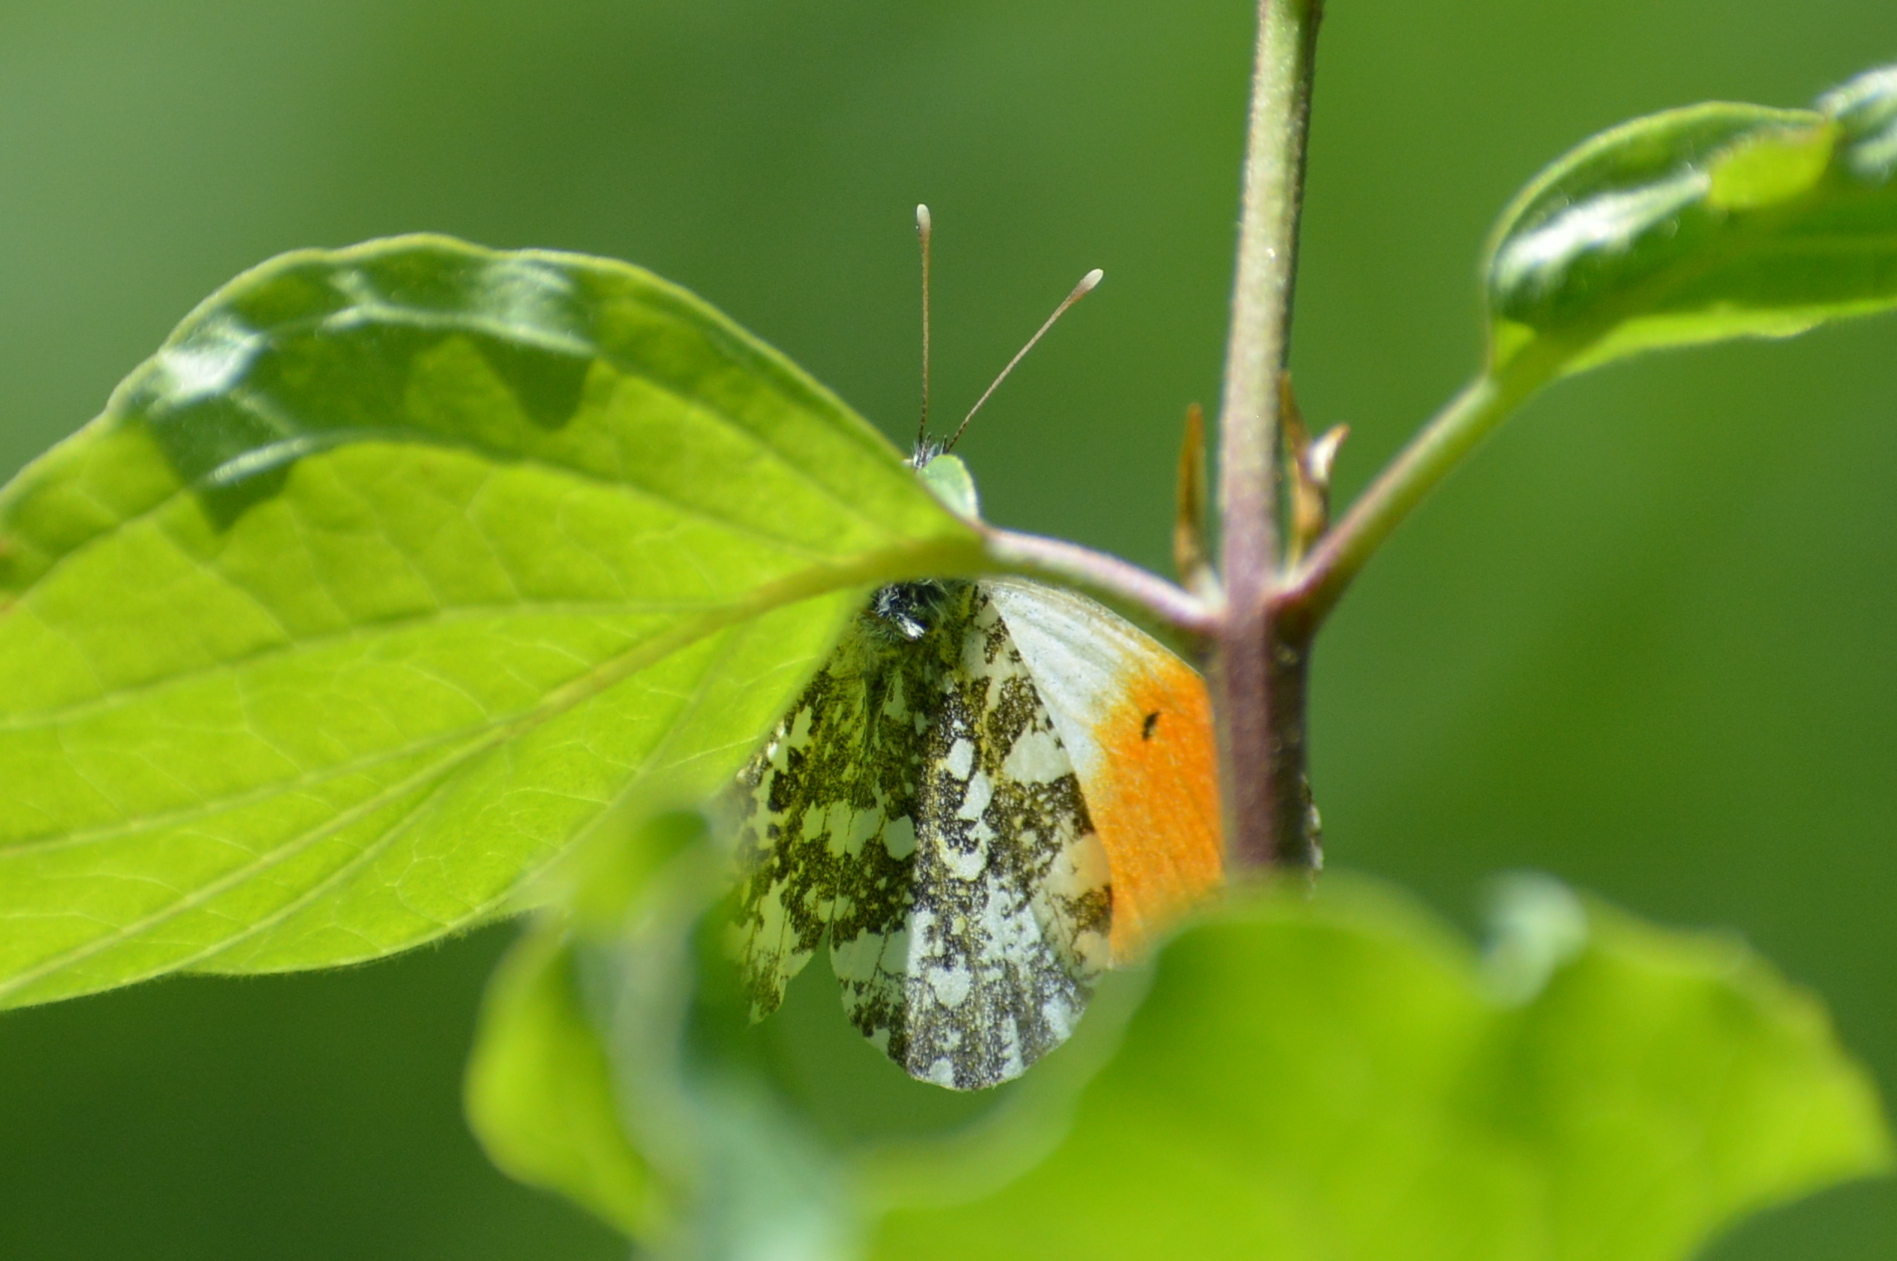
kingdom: Animalia
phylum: Arthropoda
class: Insecta
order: Lepidoptera
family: Pieridae
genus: Anthocharis
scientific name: Anthocharis cardamines
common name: Orange-tip
